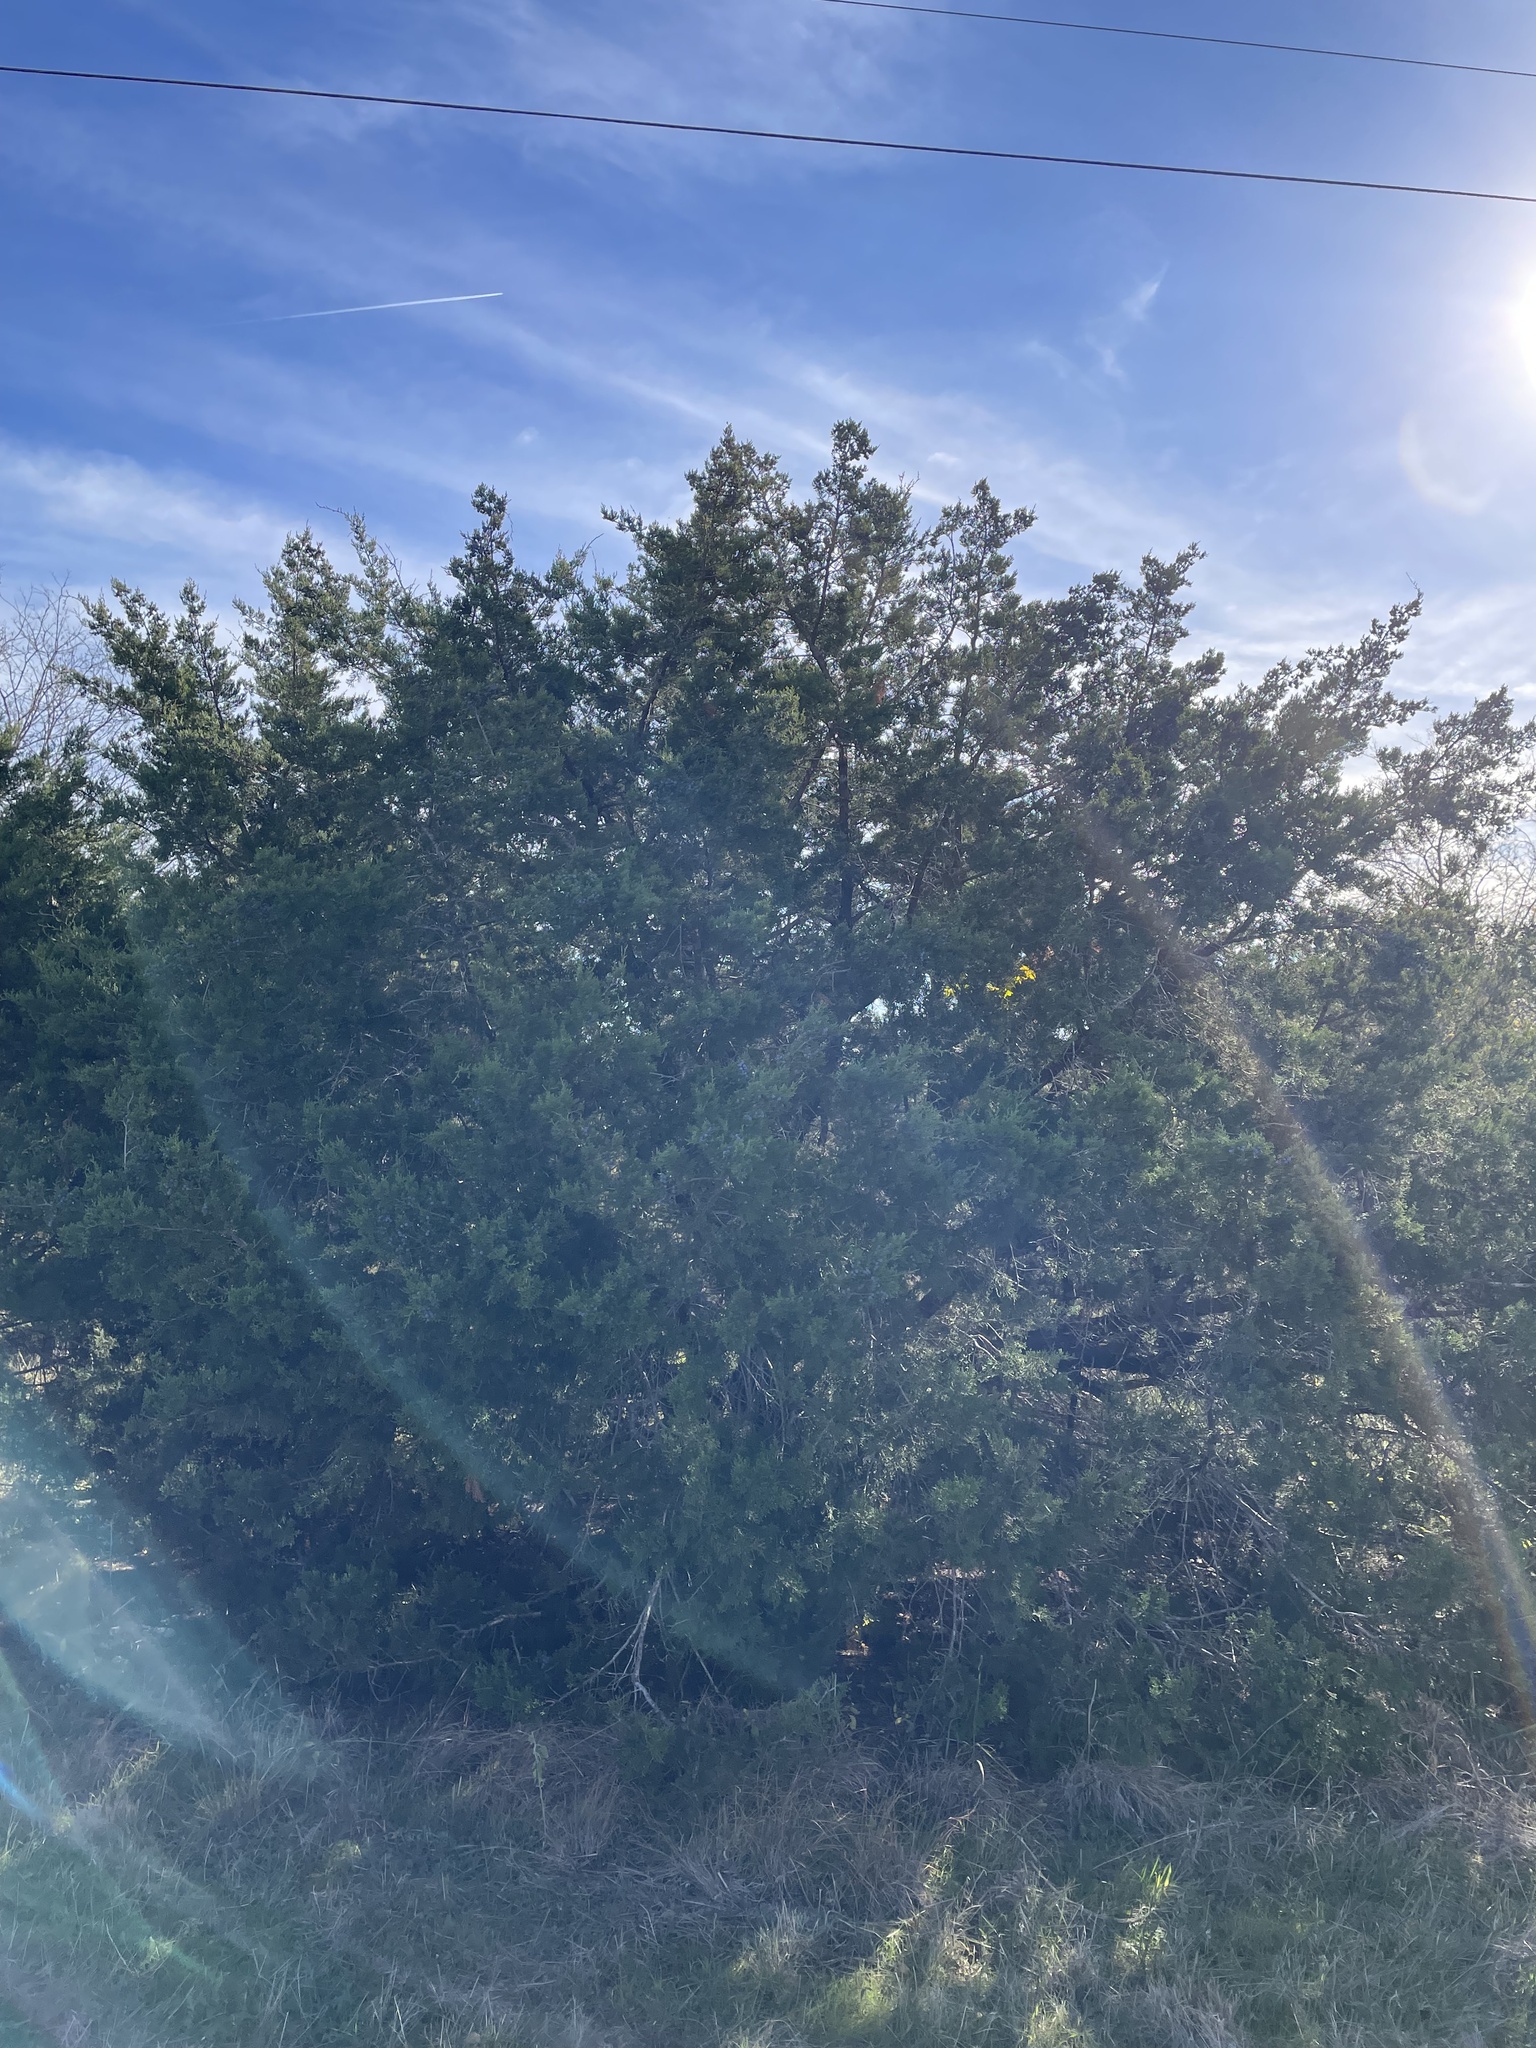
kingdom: Plantae
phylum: Tracheophyta
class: Pinopsida
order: Pinales
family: Cupressaceae
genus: Juniperus
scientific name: Juniperus ashei
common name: Mexican juniper
